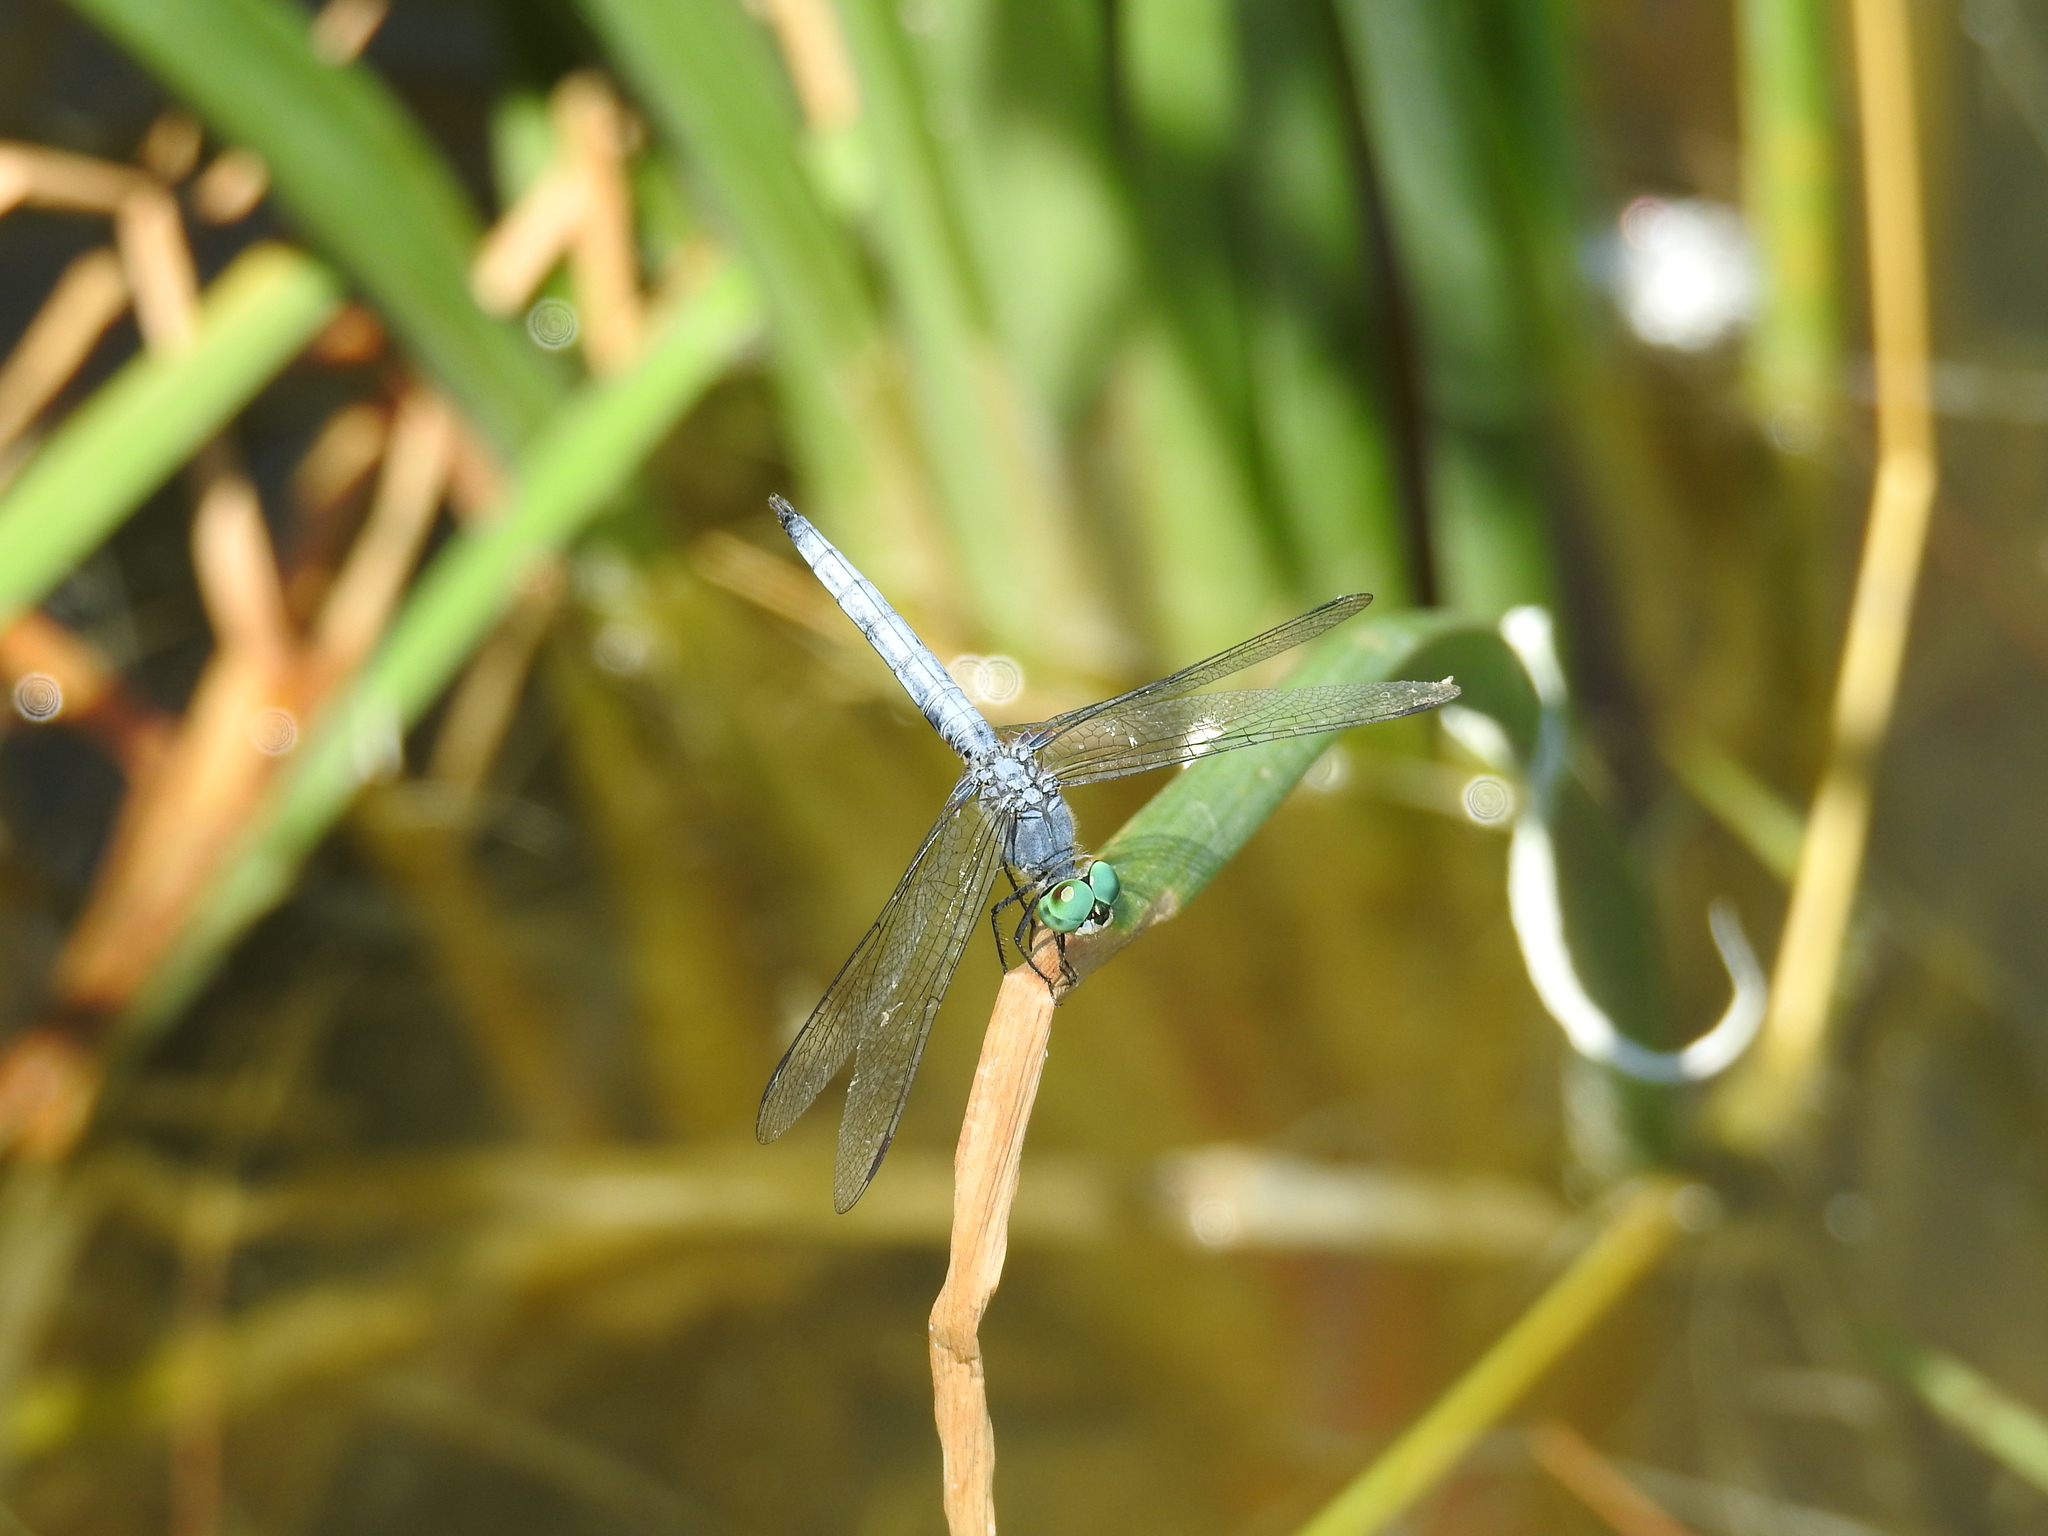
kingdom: Animalia
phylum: Arthropoda
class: Insecta
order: Odonata
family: Libellulidae
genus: Pachydiplax
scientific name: Pachydiplax longipennis
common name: Blue dasher
